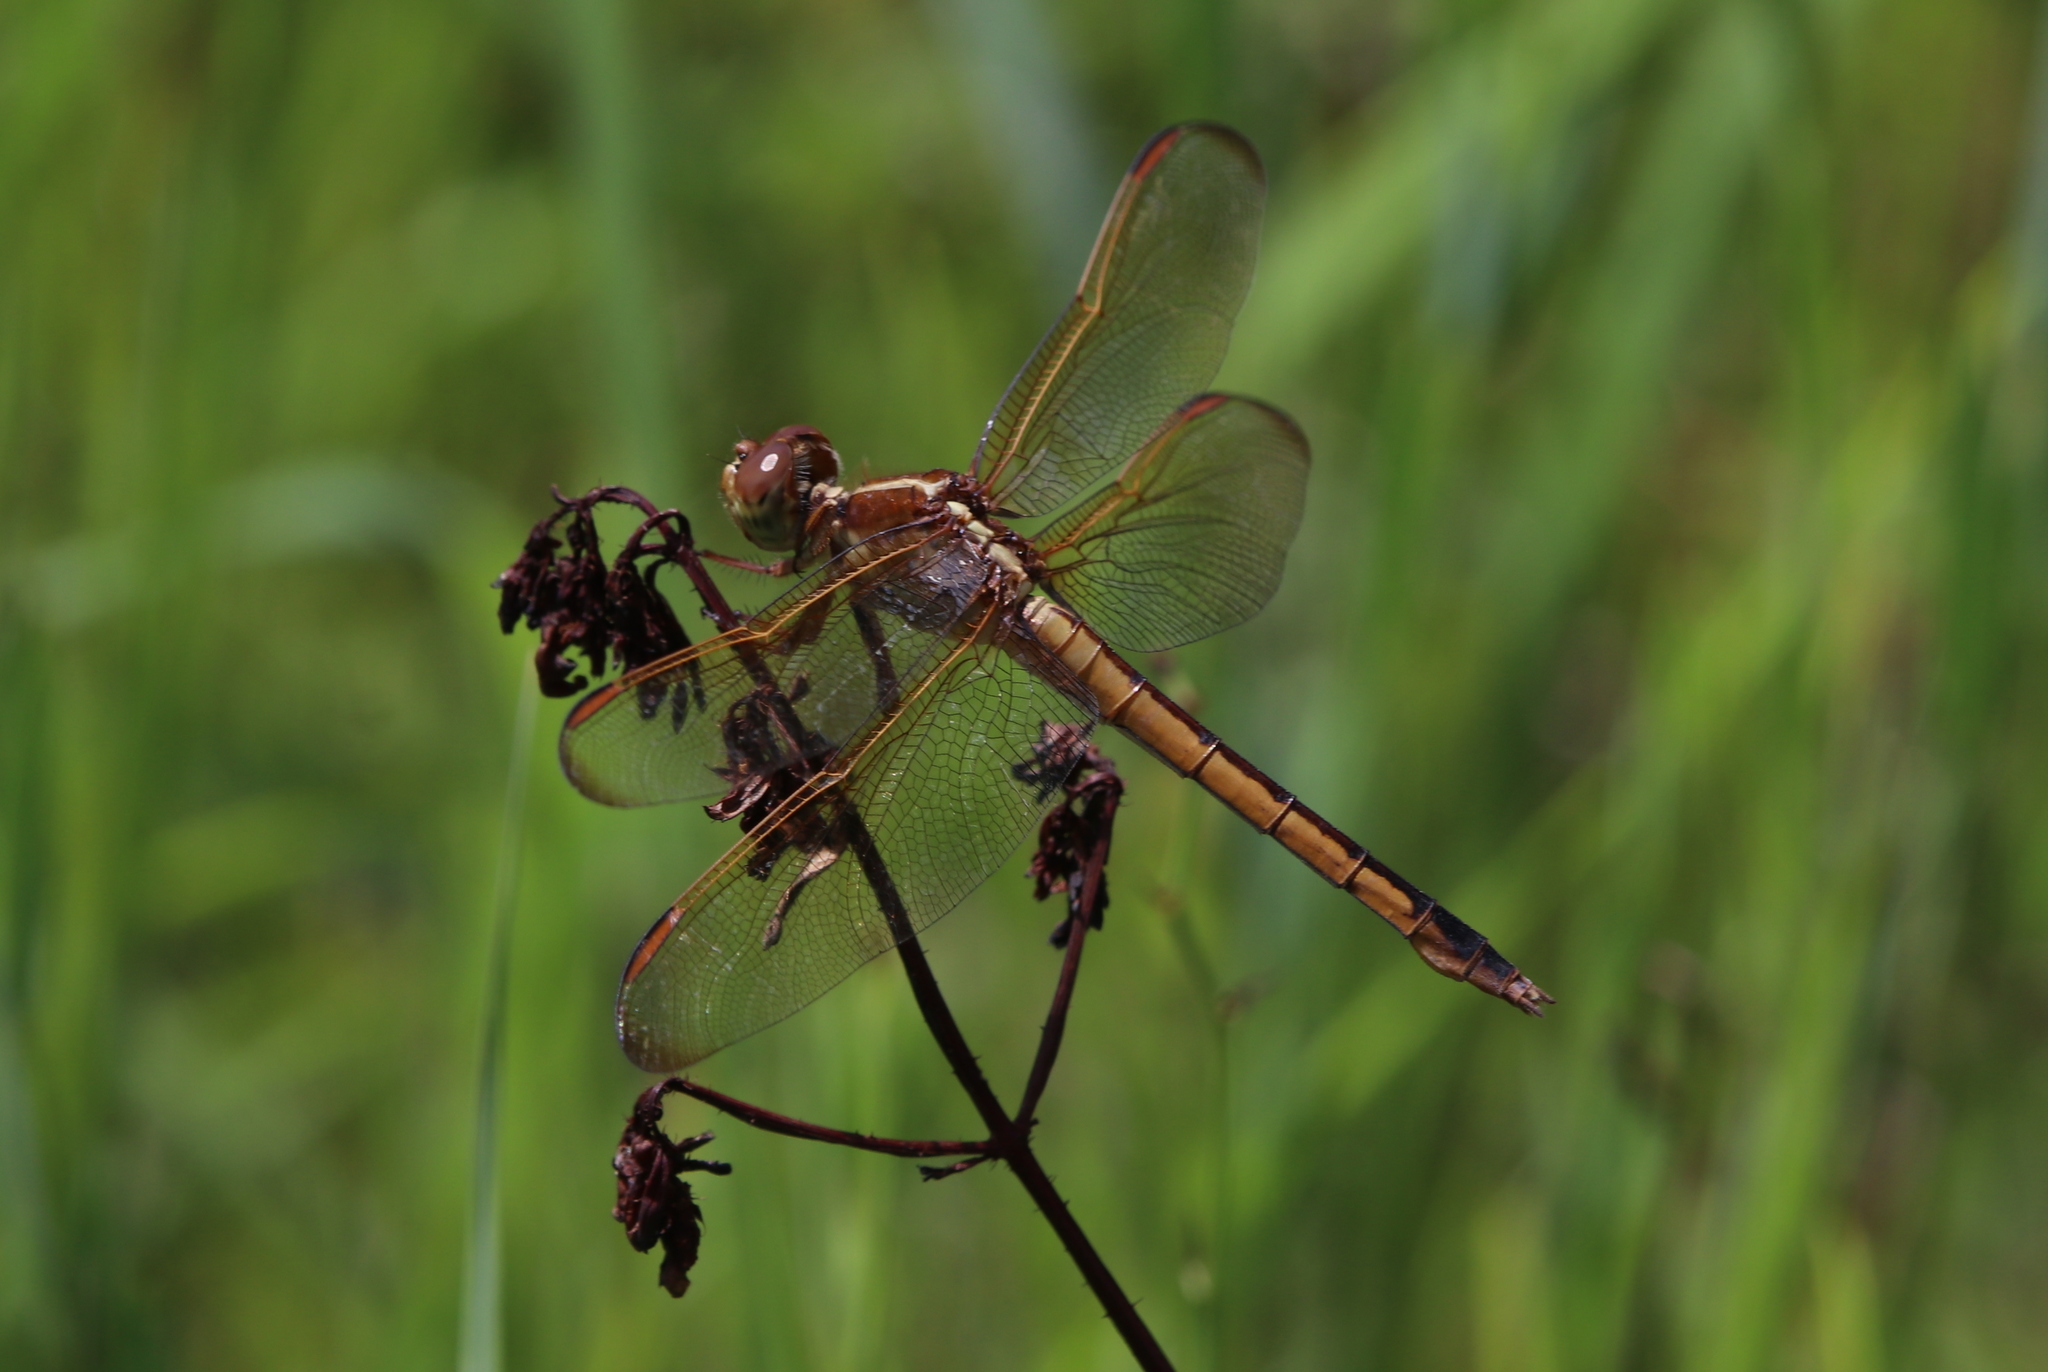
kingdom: Animalia
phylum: Arthropoda
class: Insecta
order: Odonata
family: Libellulidae
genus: Libellula
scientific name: Libellula needhami
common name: Needham's skimmer
